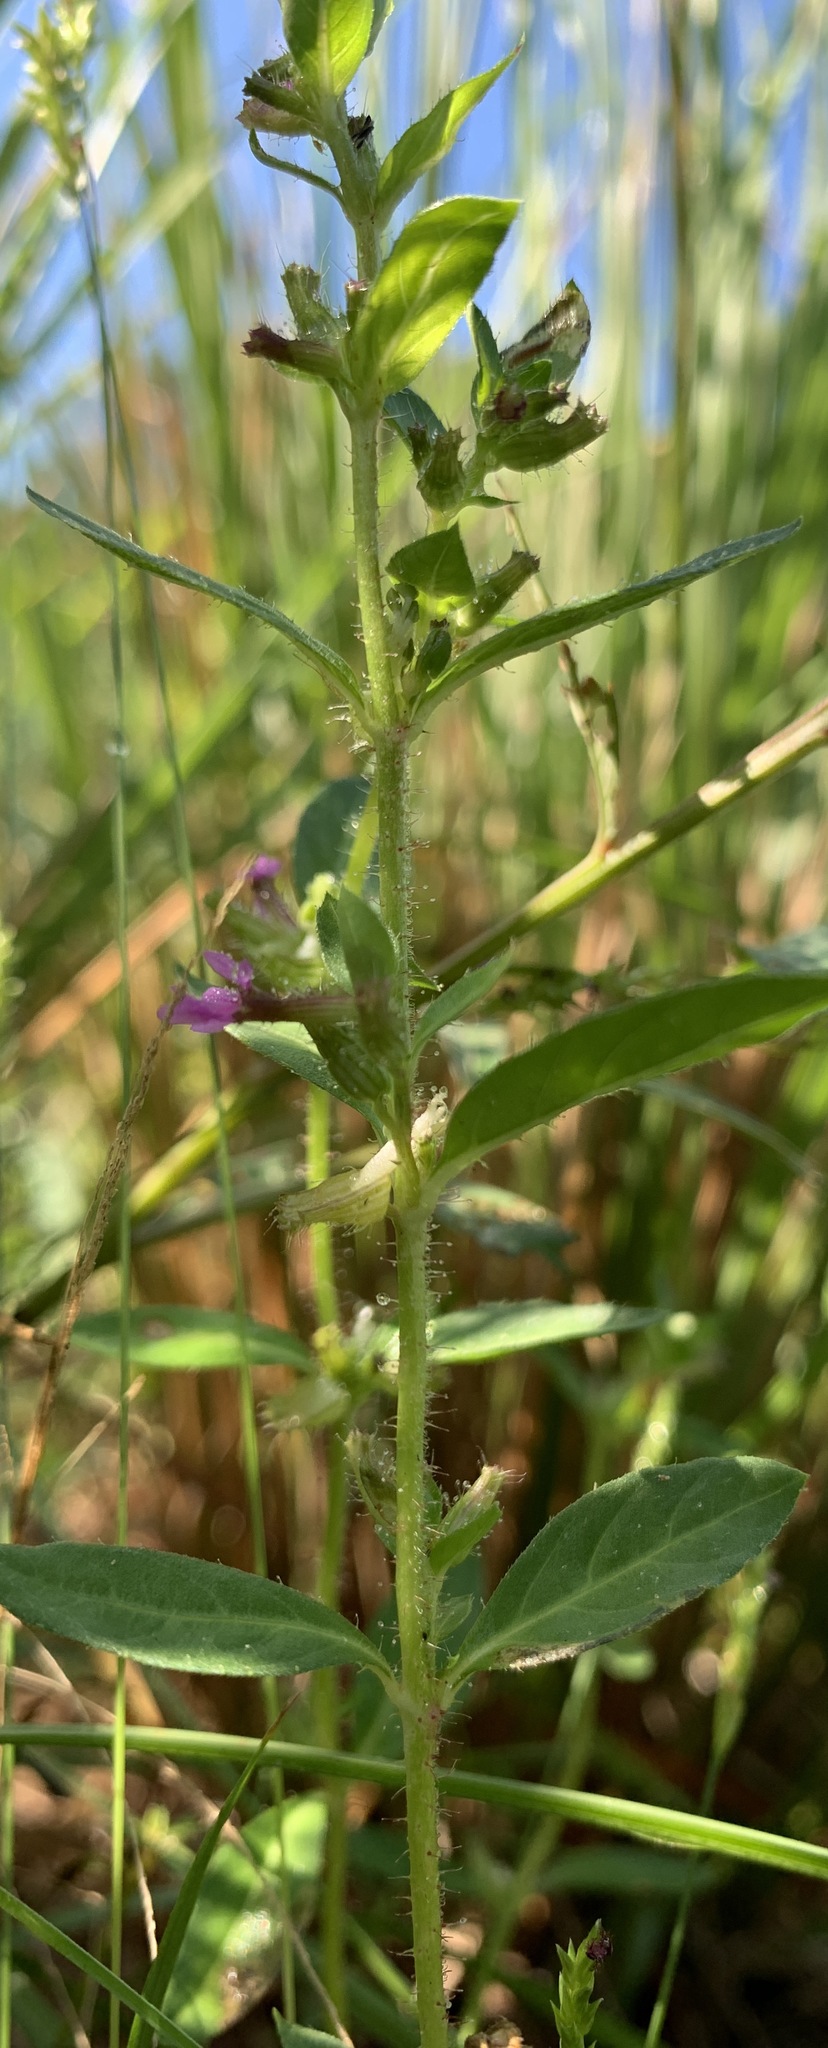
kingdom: Plantae
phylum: Tracheophyta
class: Magnoliopsida
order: Myrtales
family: Lythraceae
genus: Cuphea
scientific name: Cuphea carthagenensis
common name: Colombian waxweed
